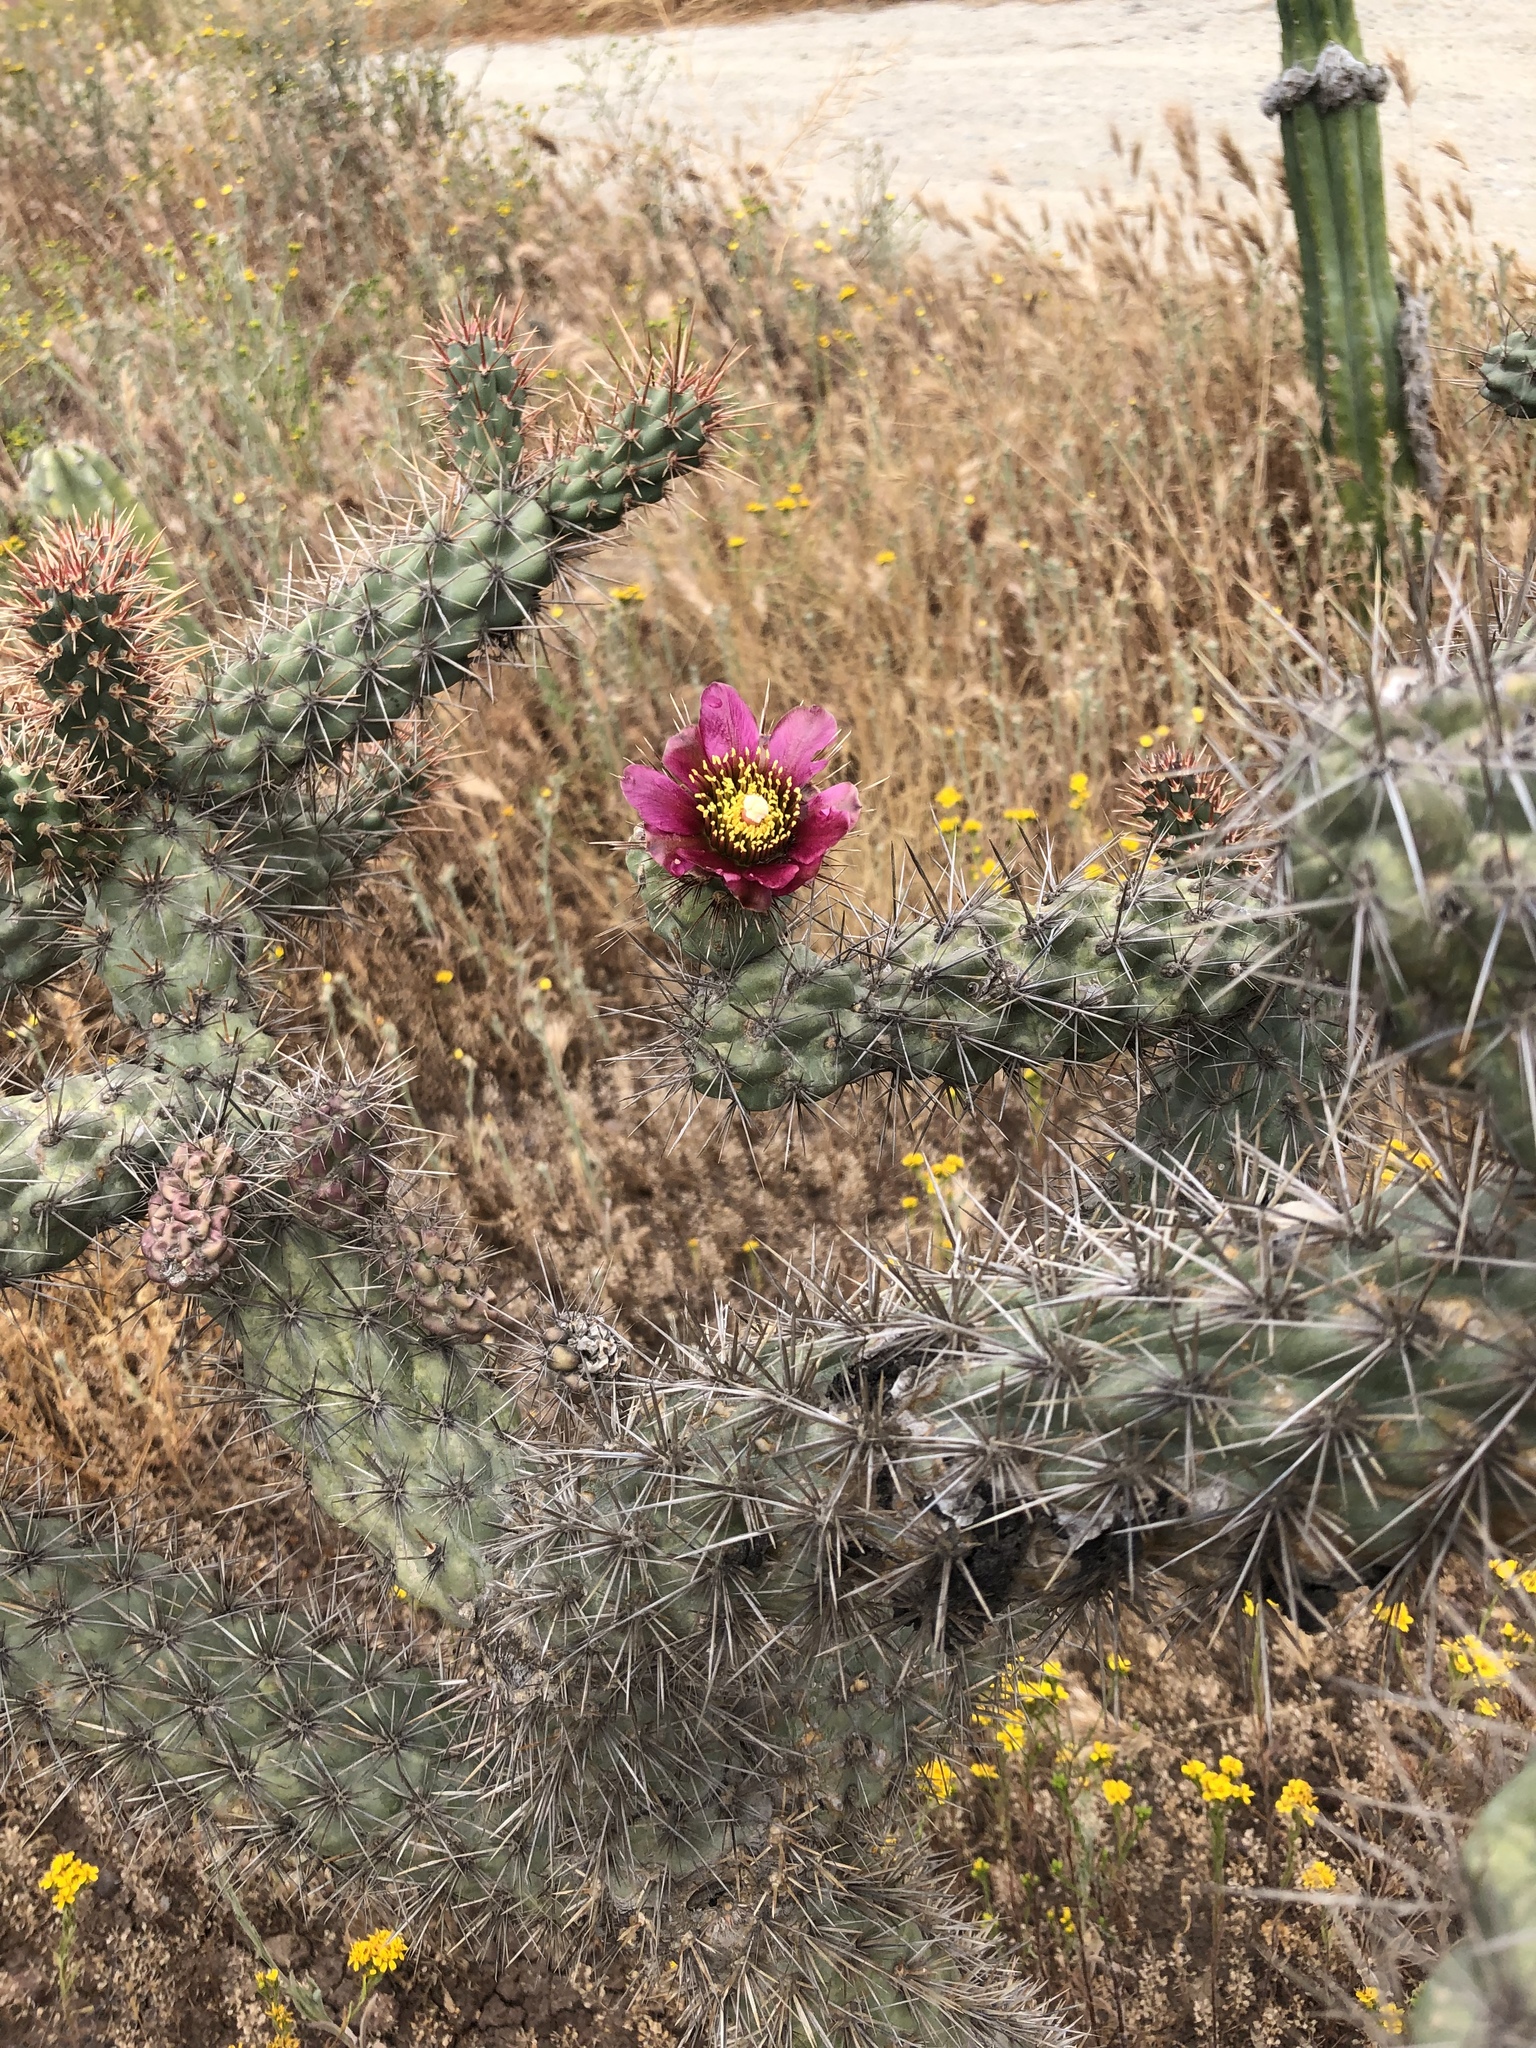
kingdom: Plantae
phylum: Tracheophyta
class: Magnoliopsida
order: Caryophyllales
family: Cactaceae
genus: Cylindropuntia
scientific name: Cylindropuntia prolifera
